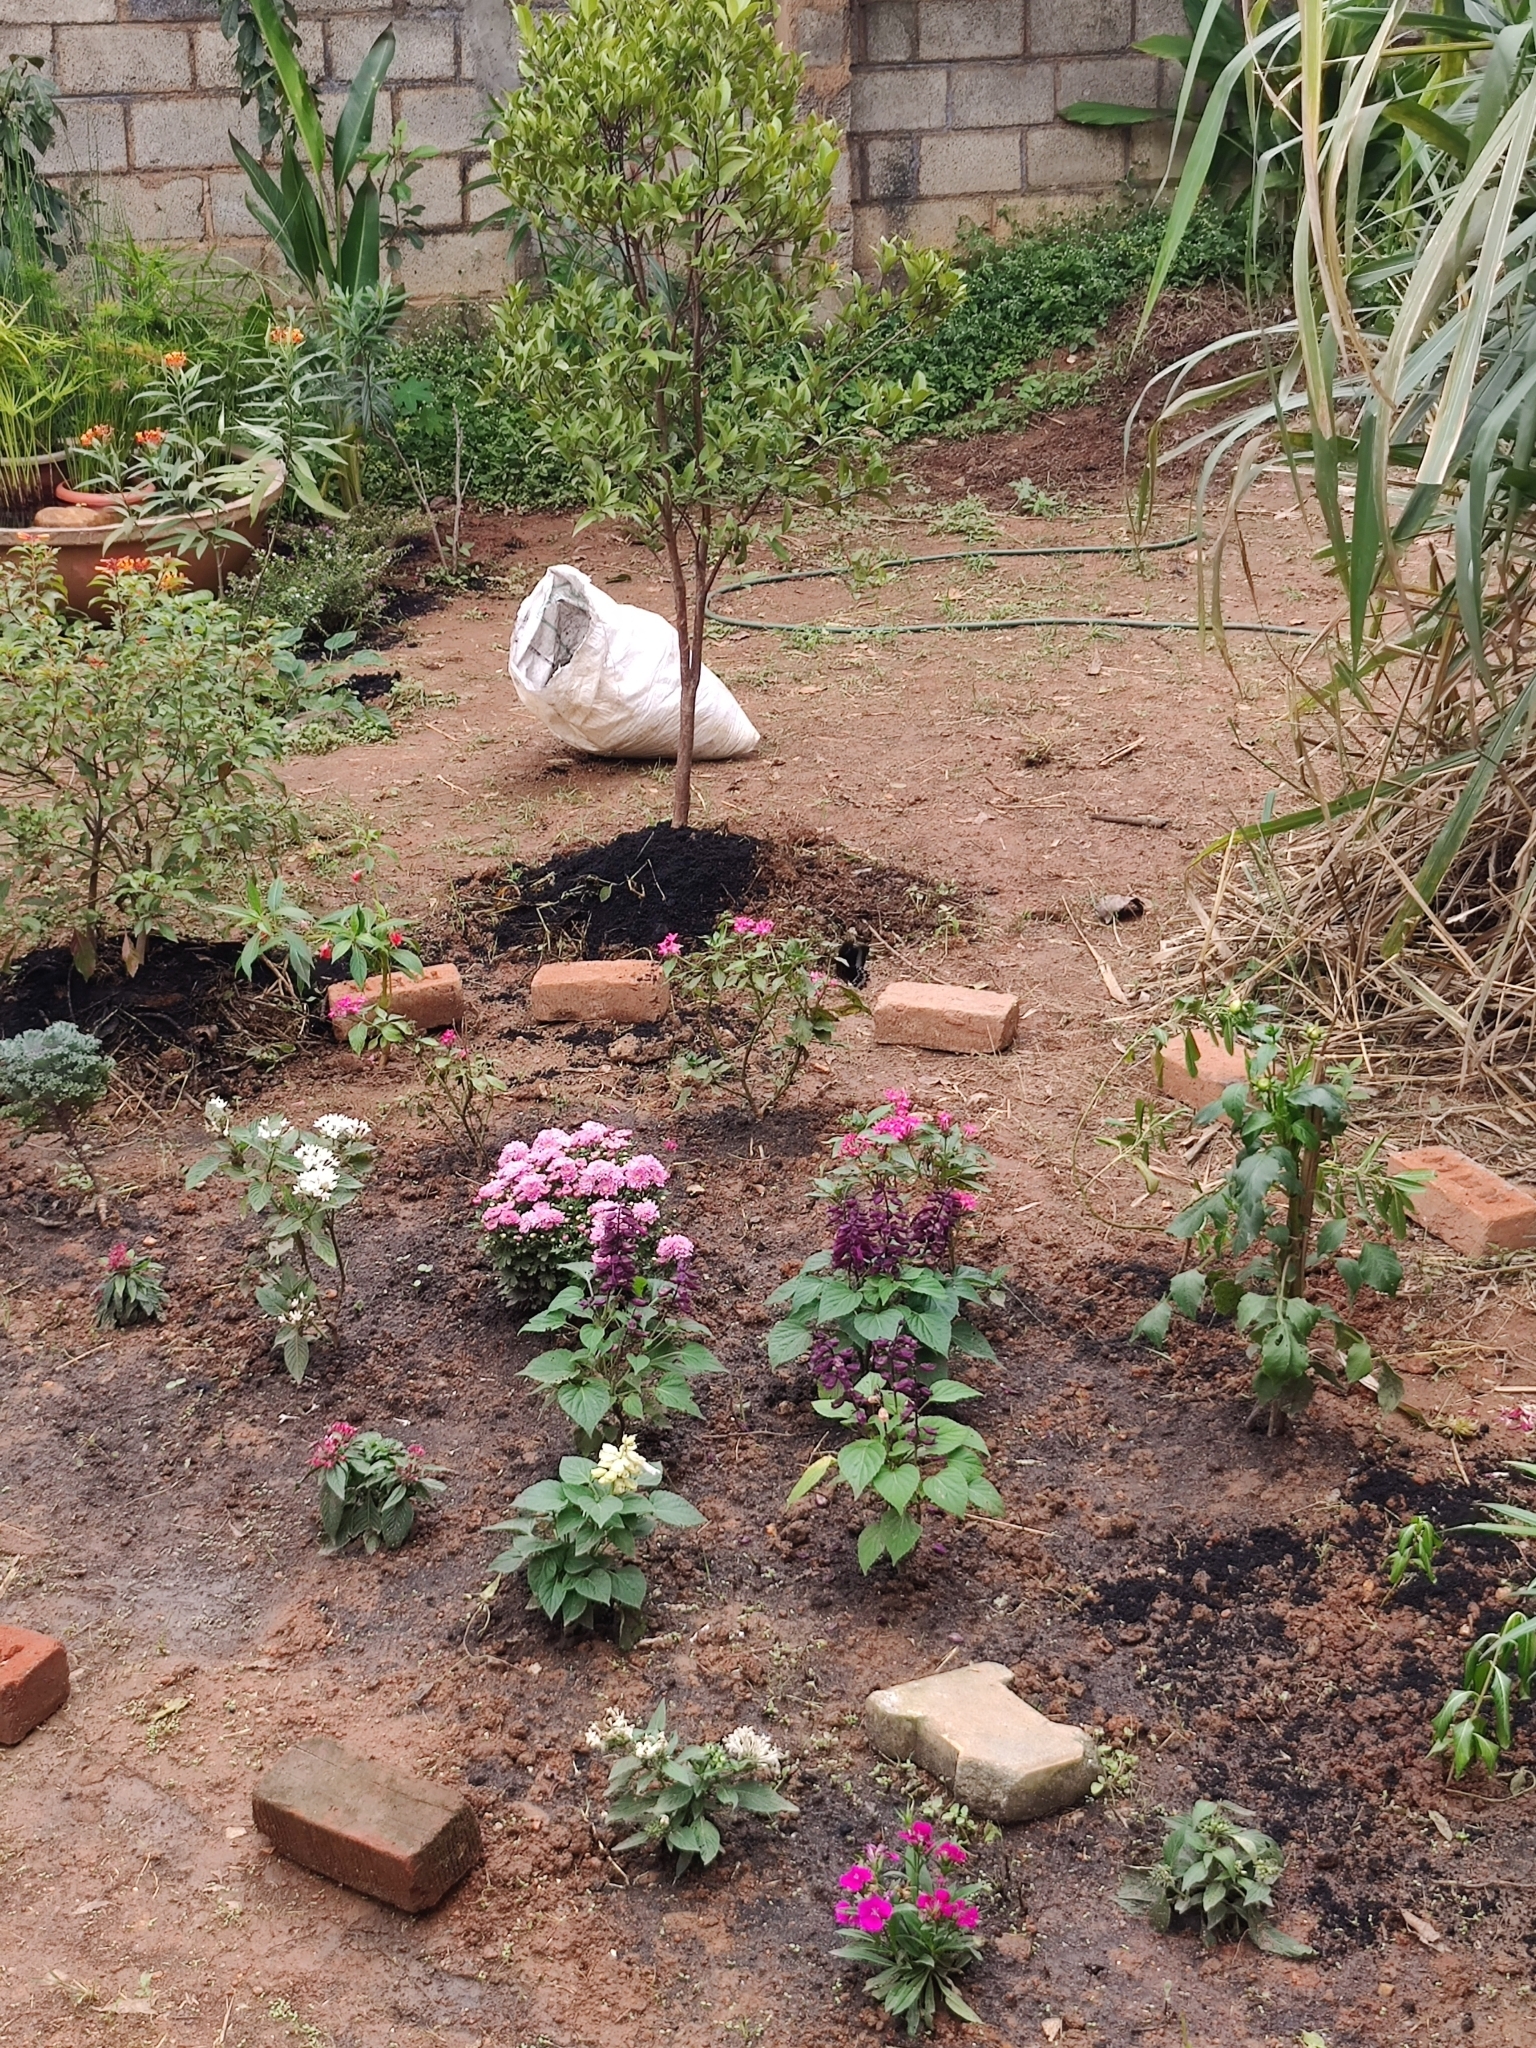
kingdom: Animalia
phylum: Arthropoda
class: Insecta
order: Lepidoptera
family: Papilionidae
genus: Papilio
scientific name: Papilio memnon
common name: Great mormon
